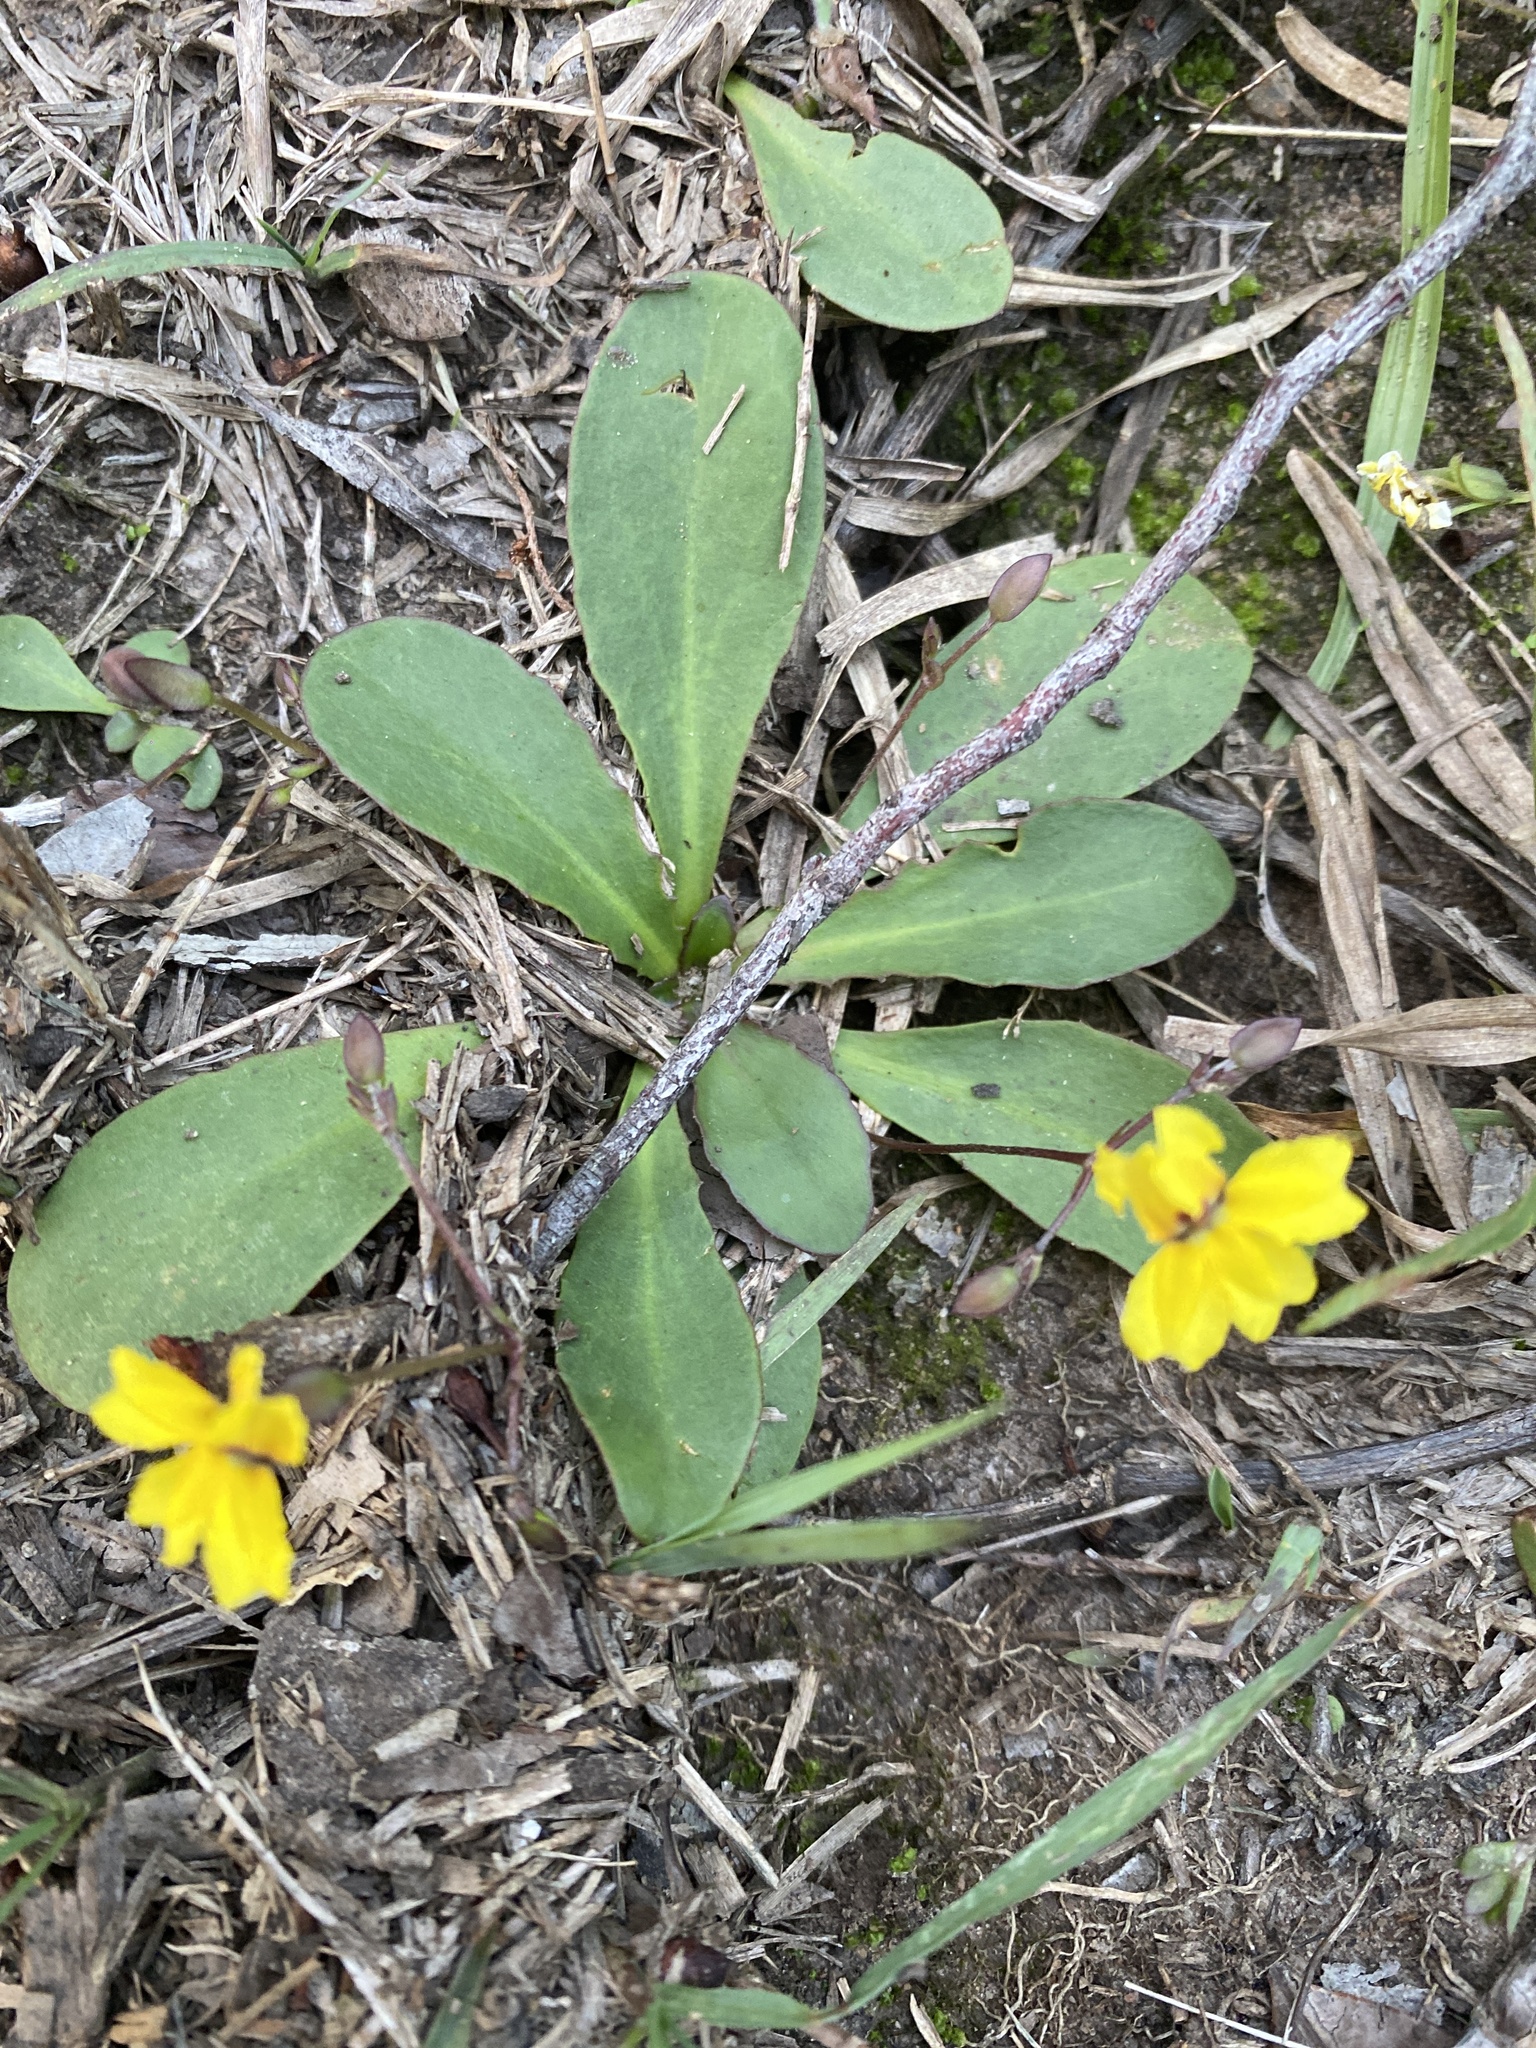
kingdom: Plantae
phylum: Tracheophyta
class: Magnoliopsida
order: Asterales
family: Goodeniaceae
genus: Goodenia
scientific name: Goodenia mystrophylla
